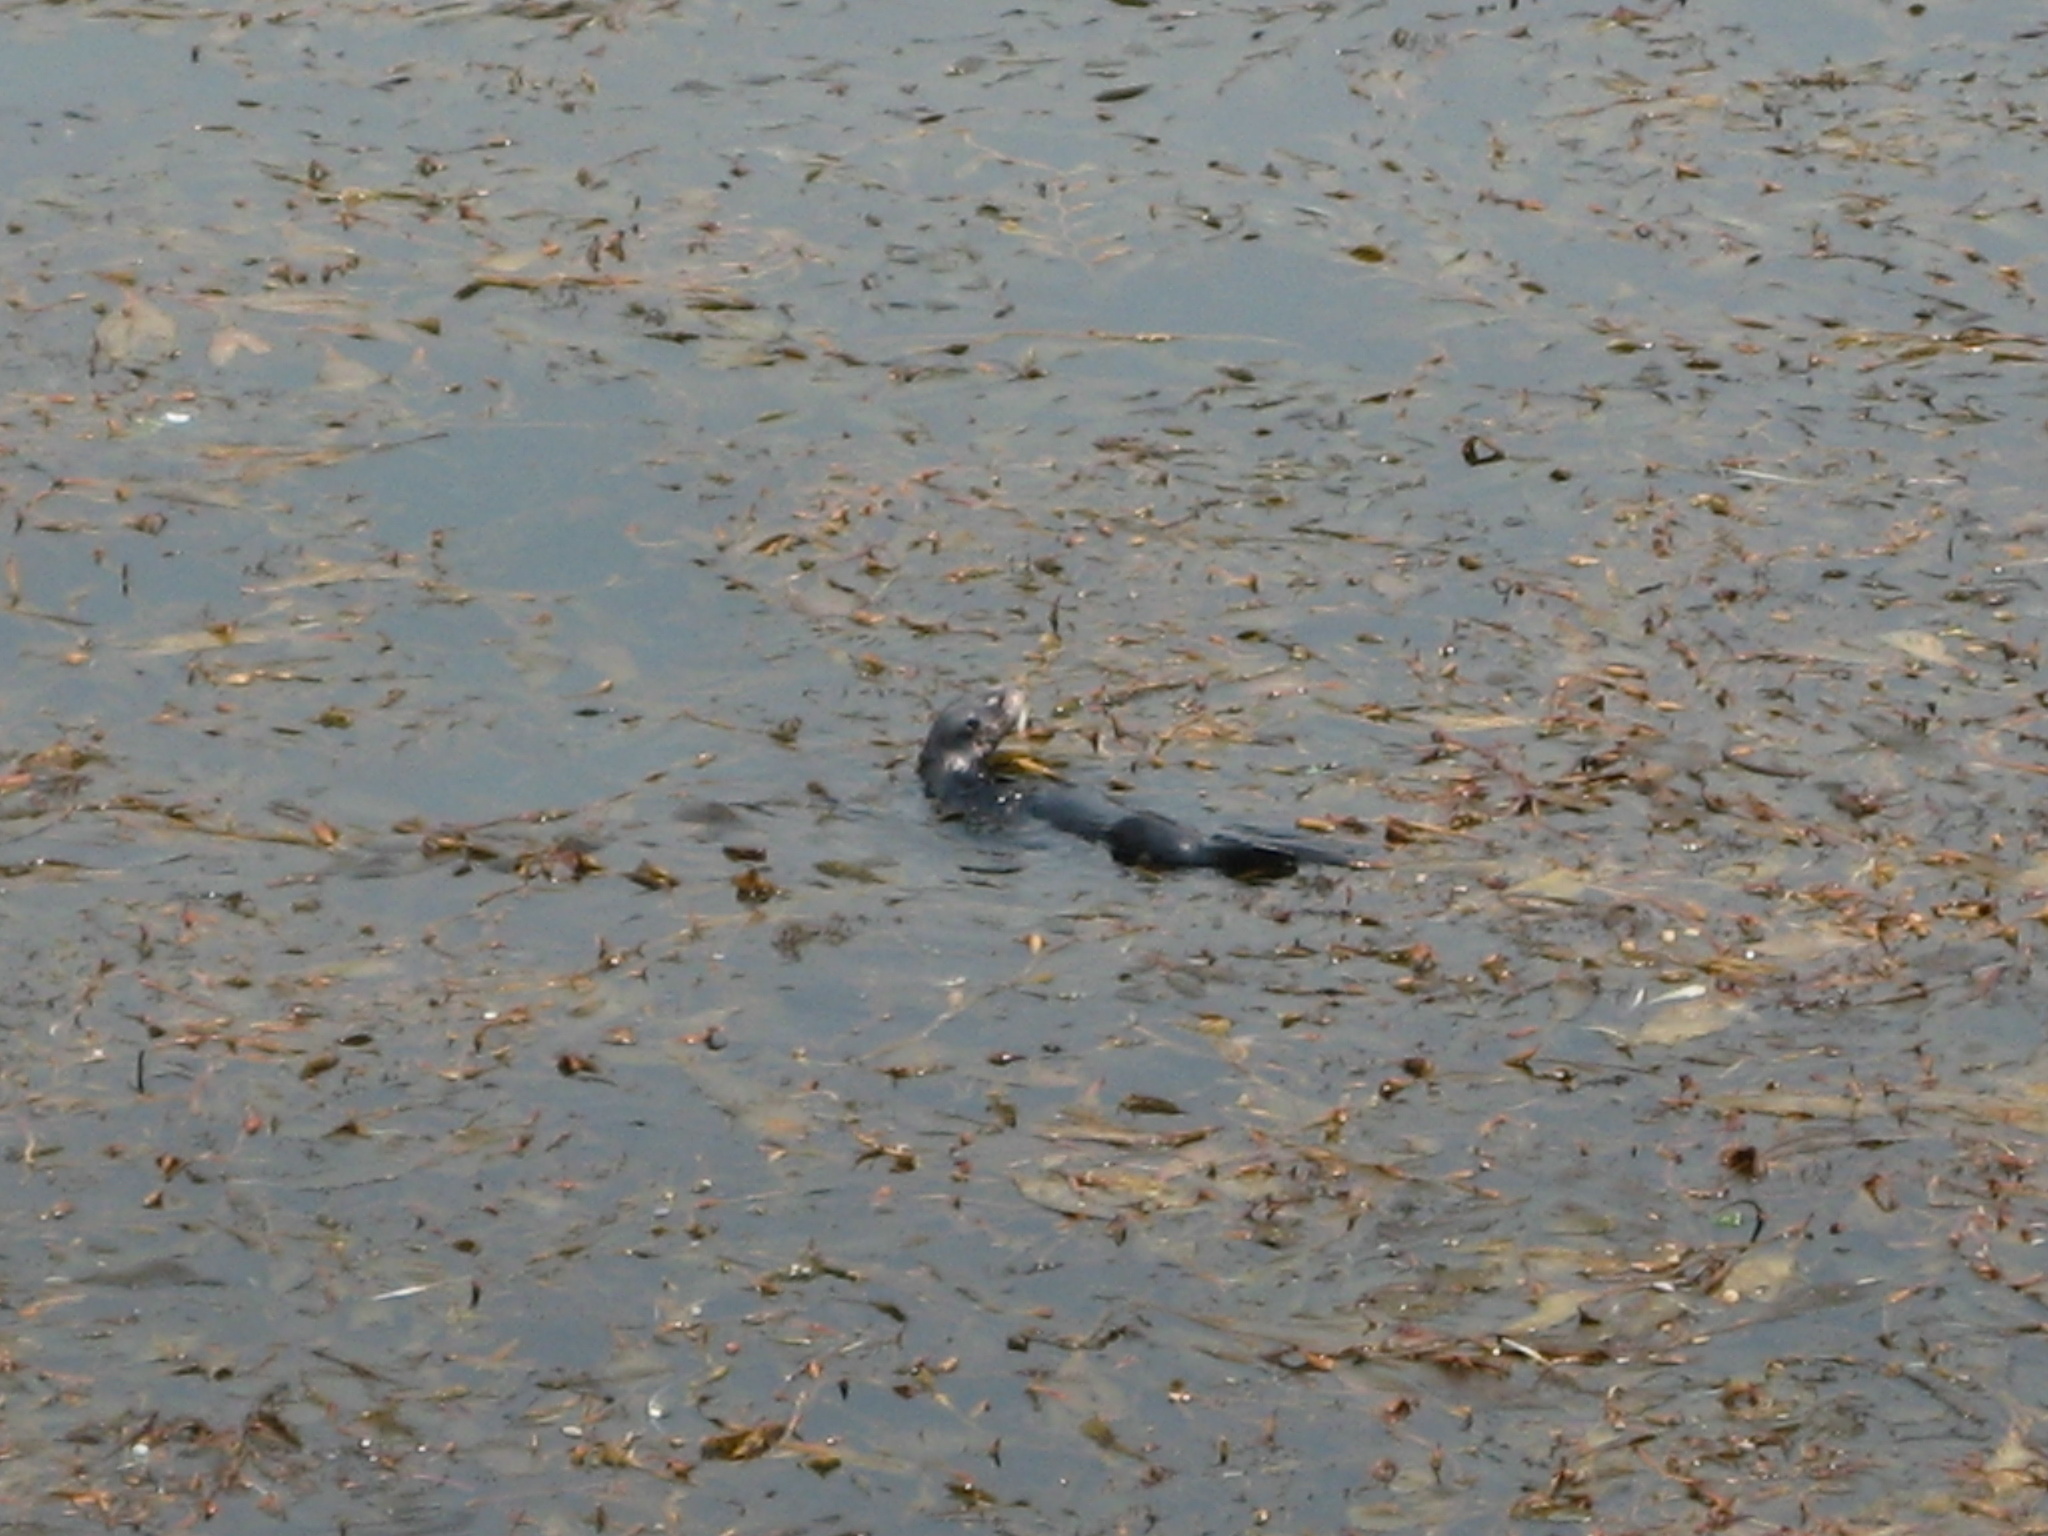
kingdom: Animalia
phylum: Chordata
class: Mammalia
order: Carnivora
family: Mustelidae
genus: Enhydra
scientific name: Enhydra lutris
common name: Sea otter
